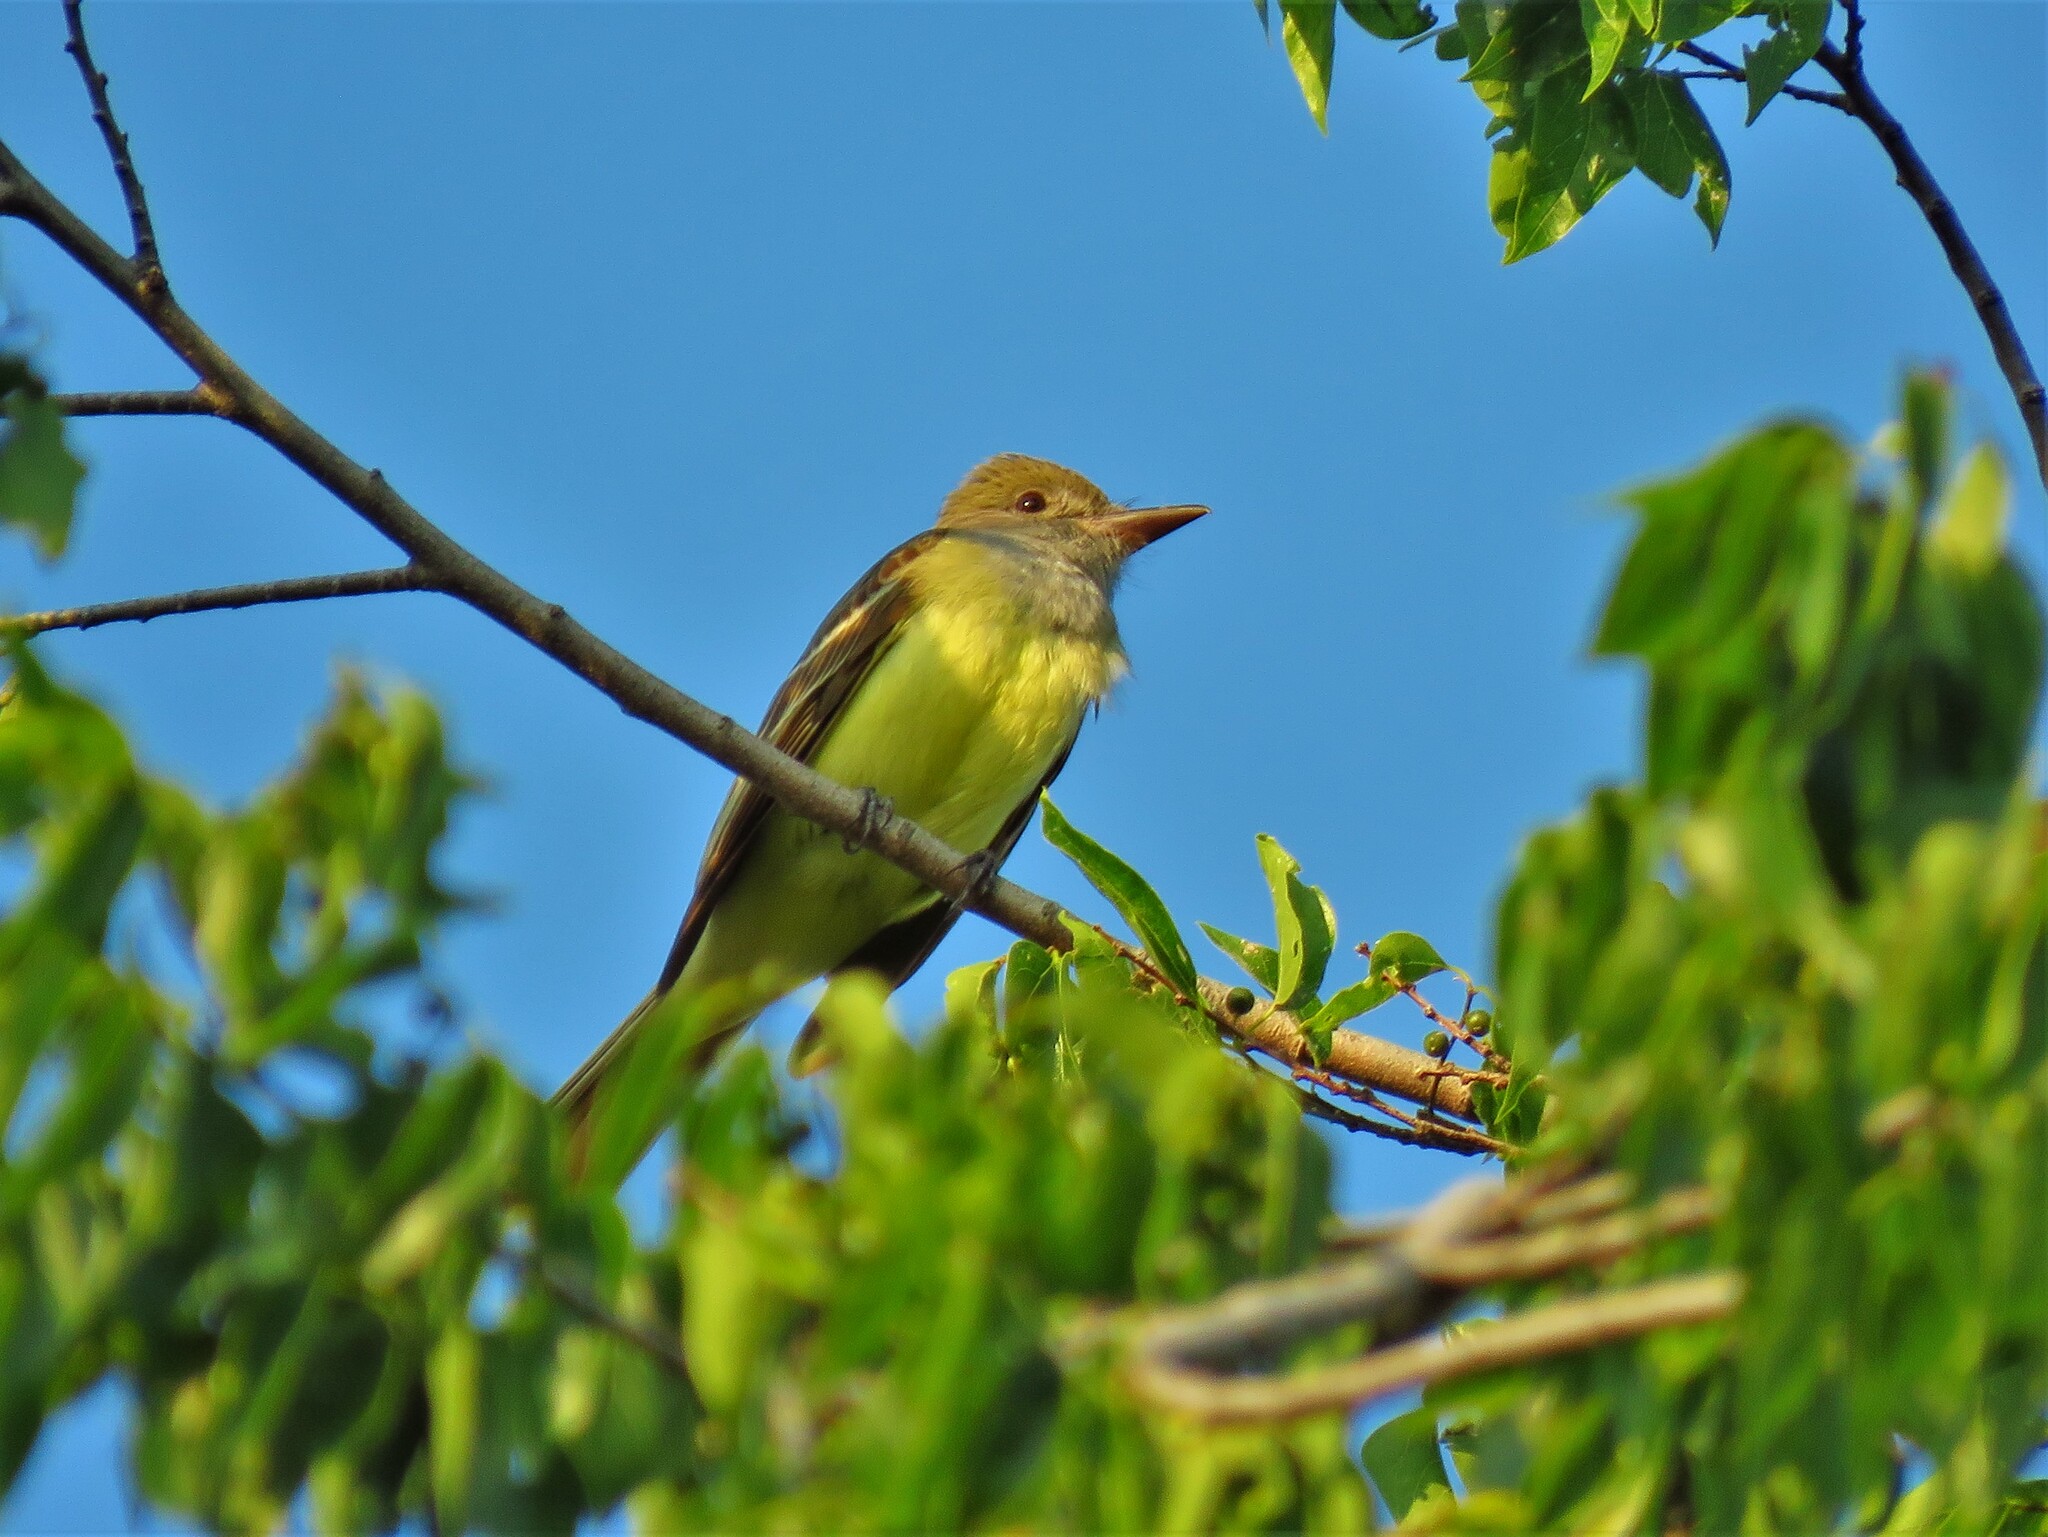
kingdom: Animalia
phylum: Chordata
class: Aves
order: Passeriformes
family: Tyrannidae
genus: Myiarchus
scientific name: Myiarchus crinitus
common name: Great crested flycatcher
